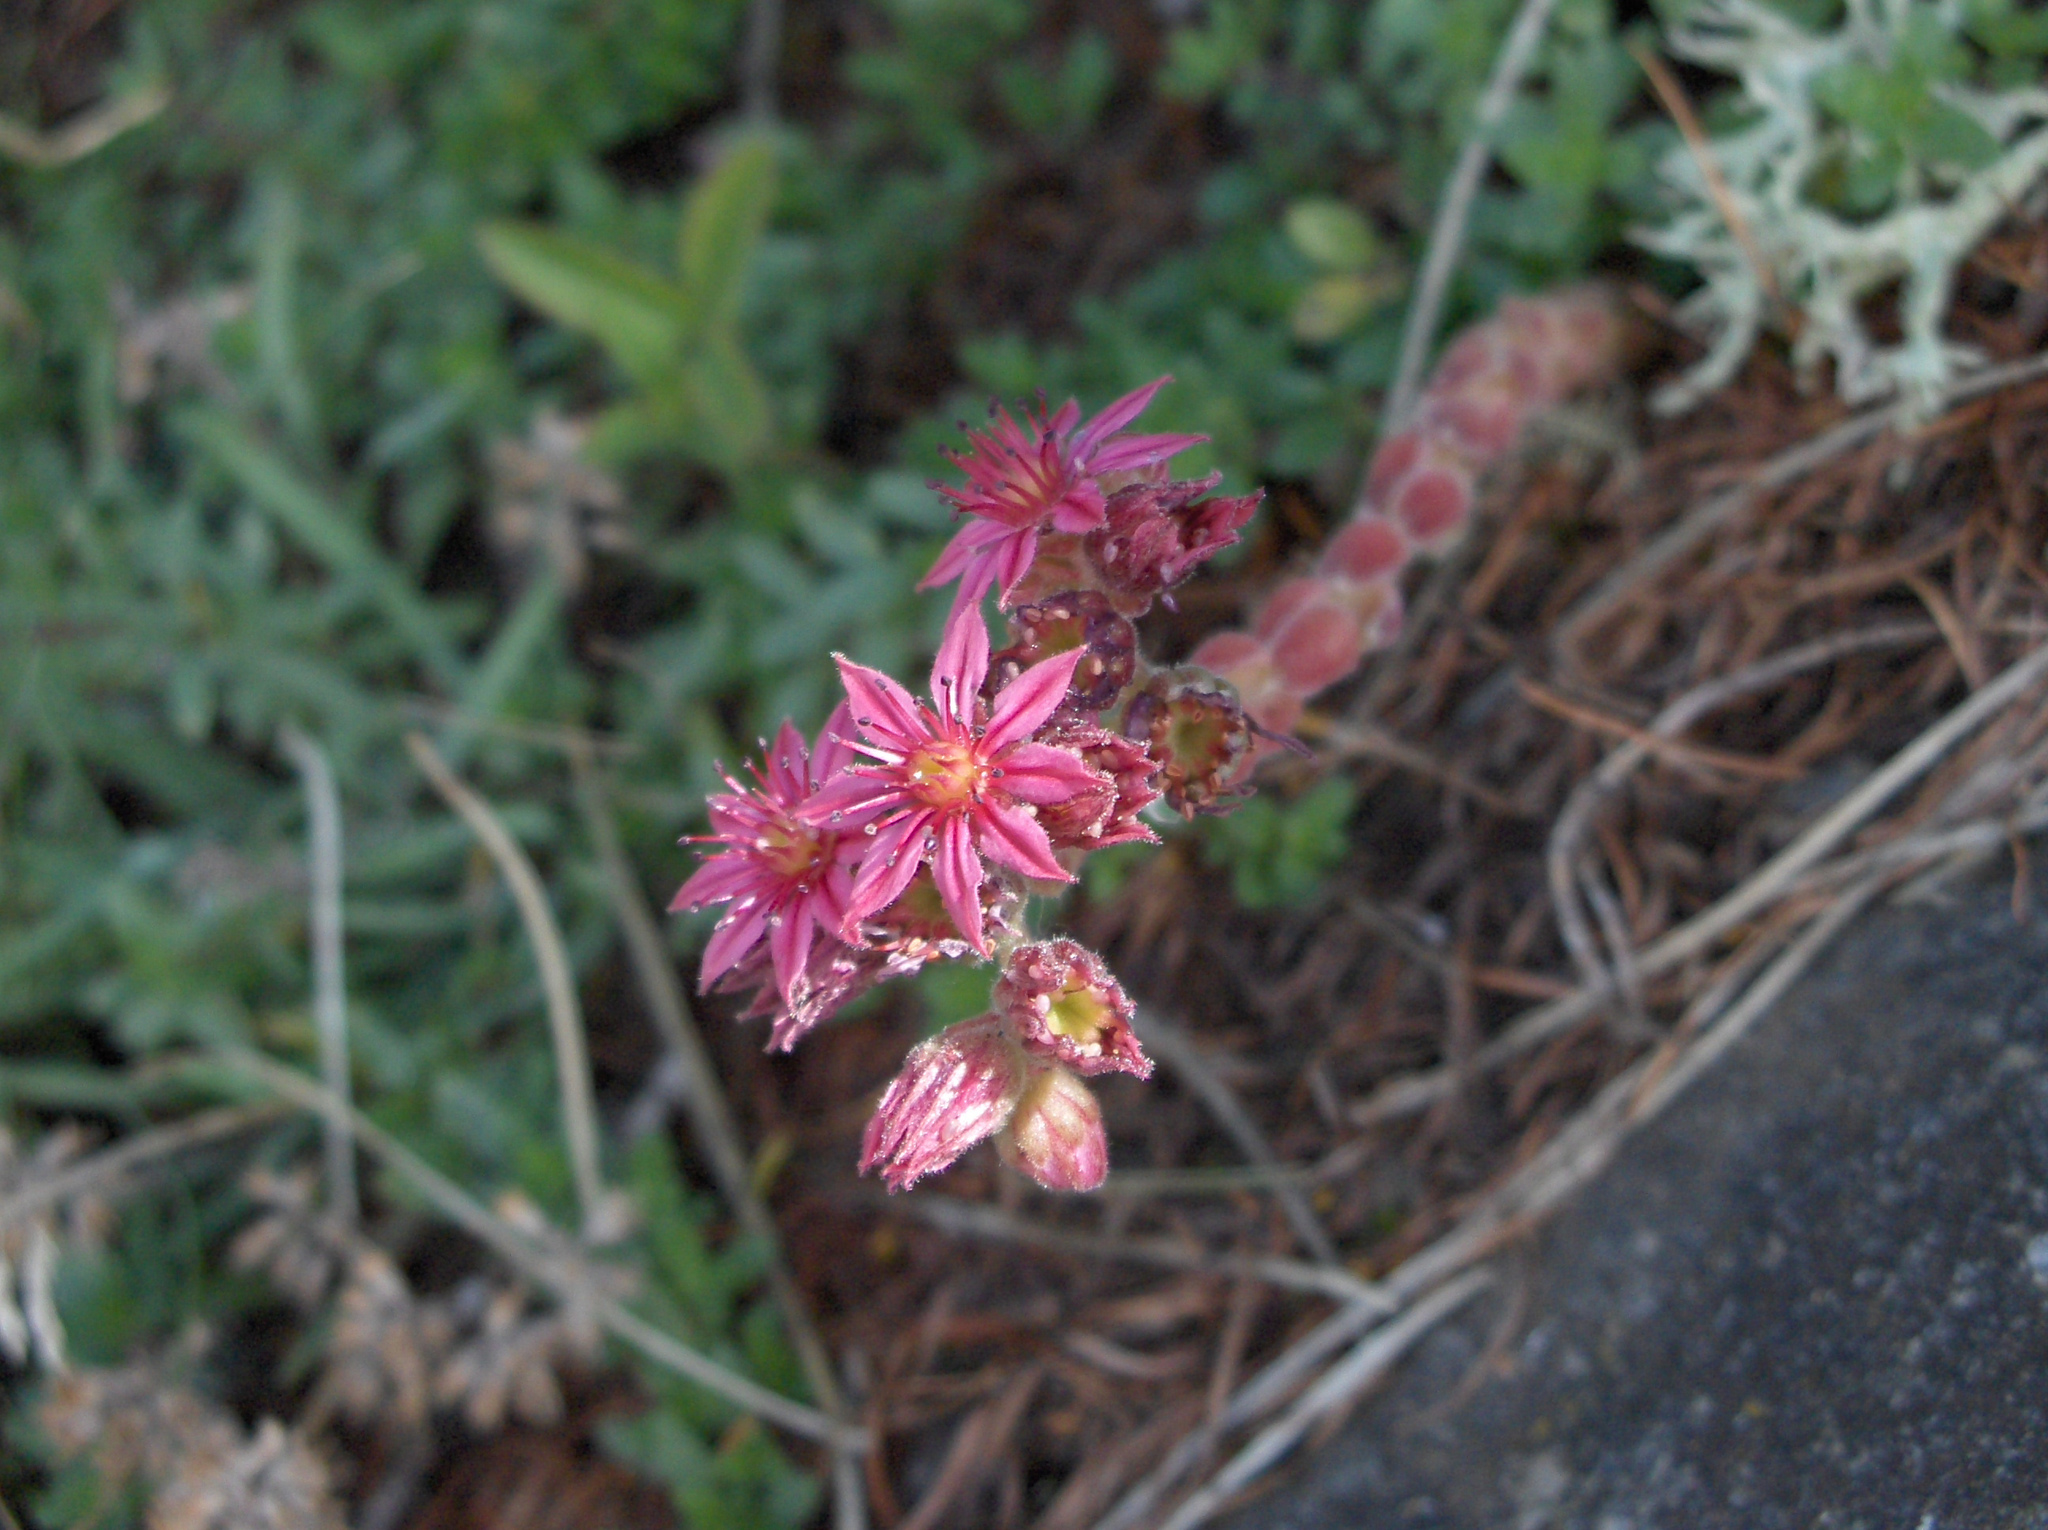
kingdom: Plantae
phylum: Tracheophyta
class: Magnoliopsida
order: Saxifragales
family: Crassulaceae
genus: Sempervivum
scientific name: Sempervivum arachnoideum
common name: Cobweb house-leek
